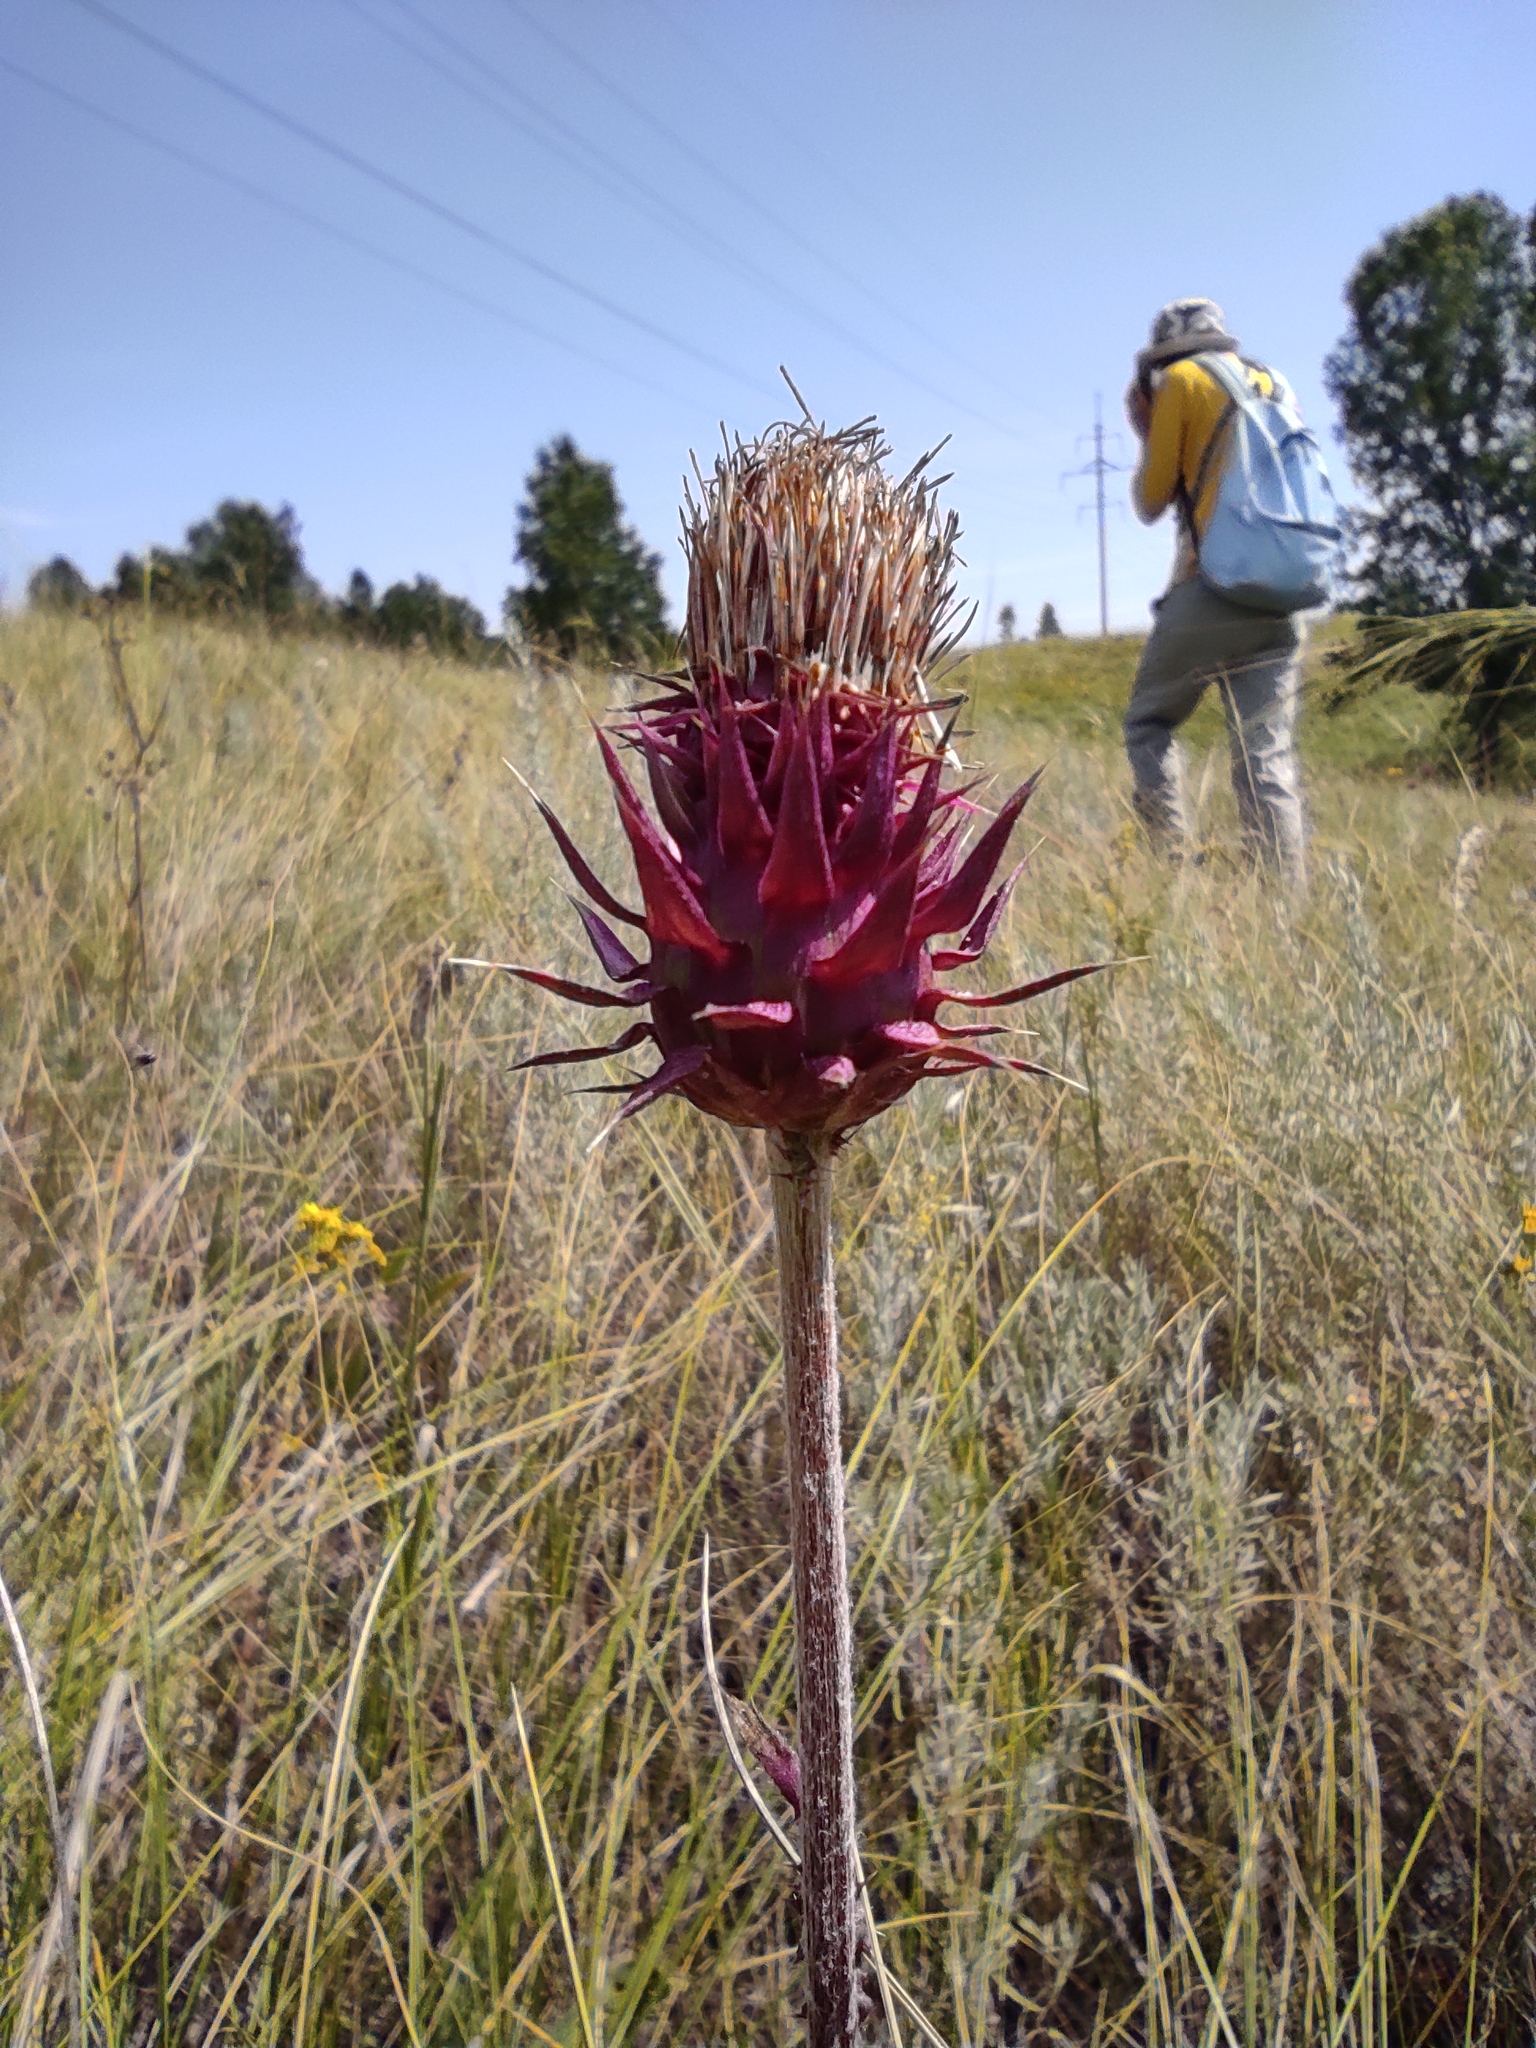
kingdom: Plantae
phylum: Tracheophyta
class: Magnoliopsida
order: Asterales
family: Asteraceae
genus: Carduus
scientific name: Carduus nutans
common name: Musk thistle
